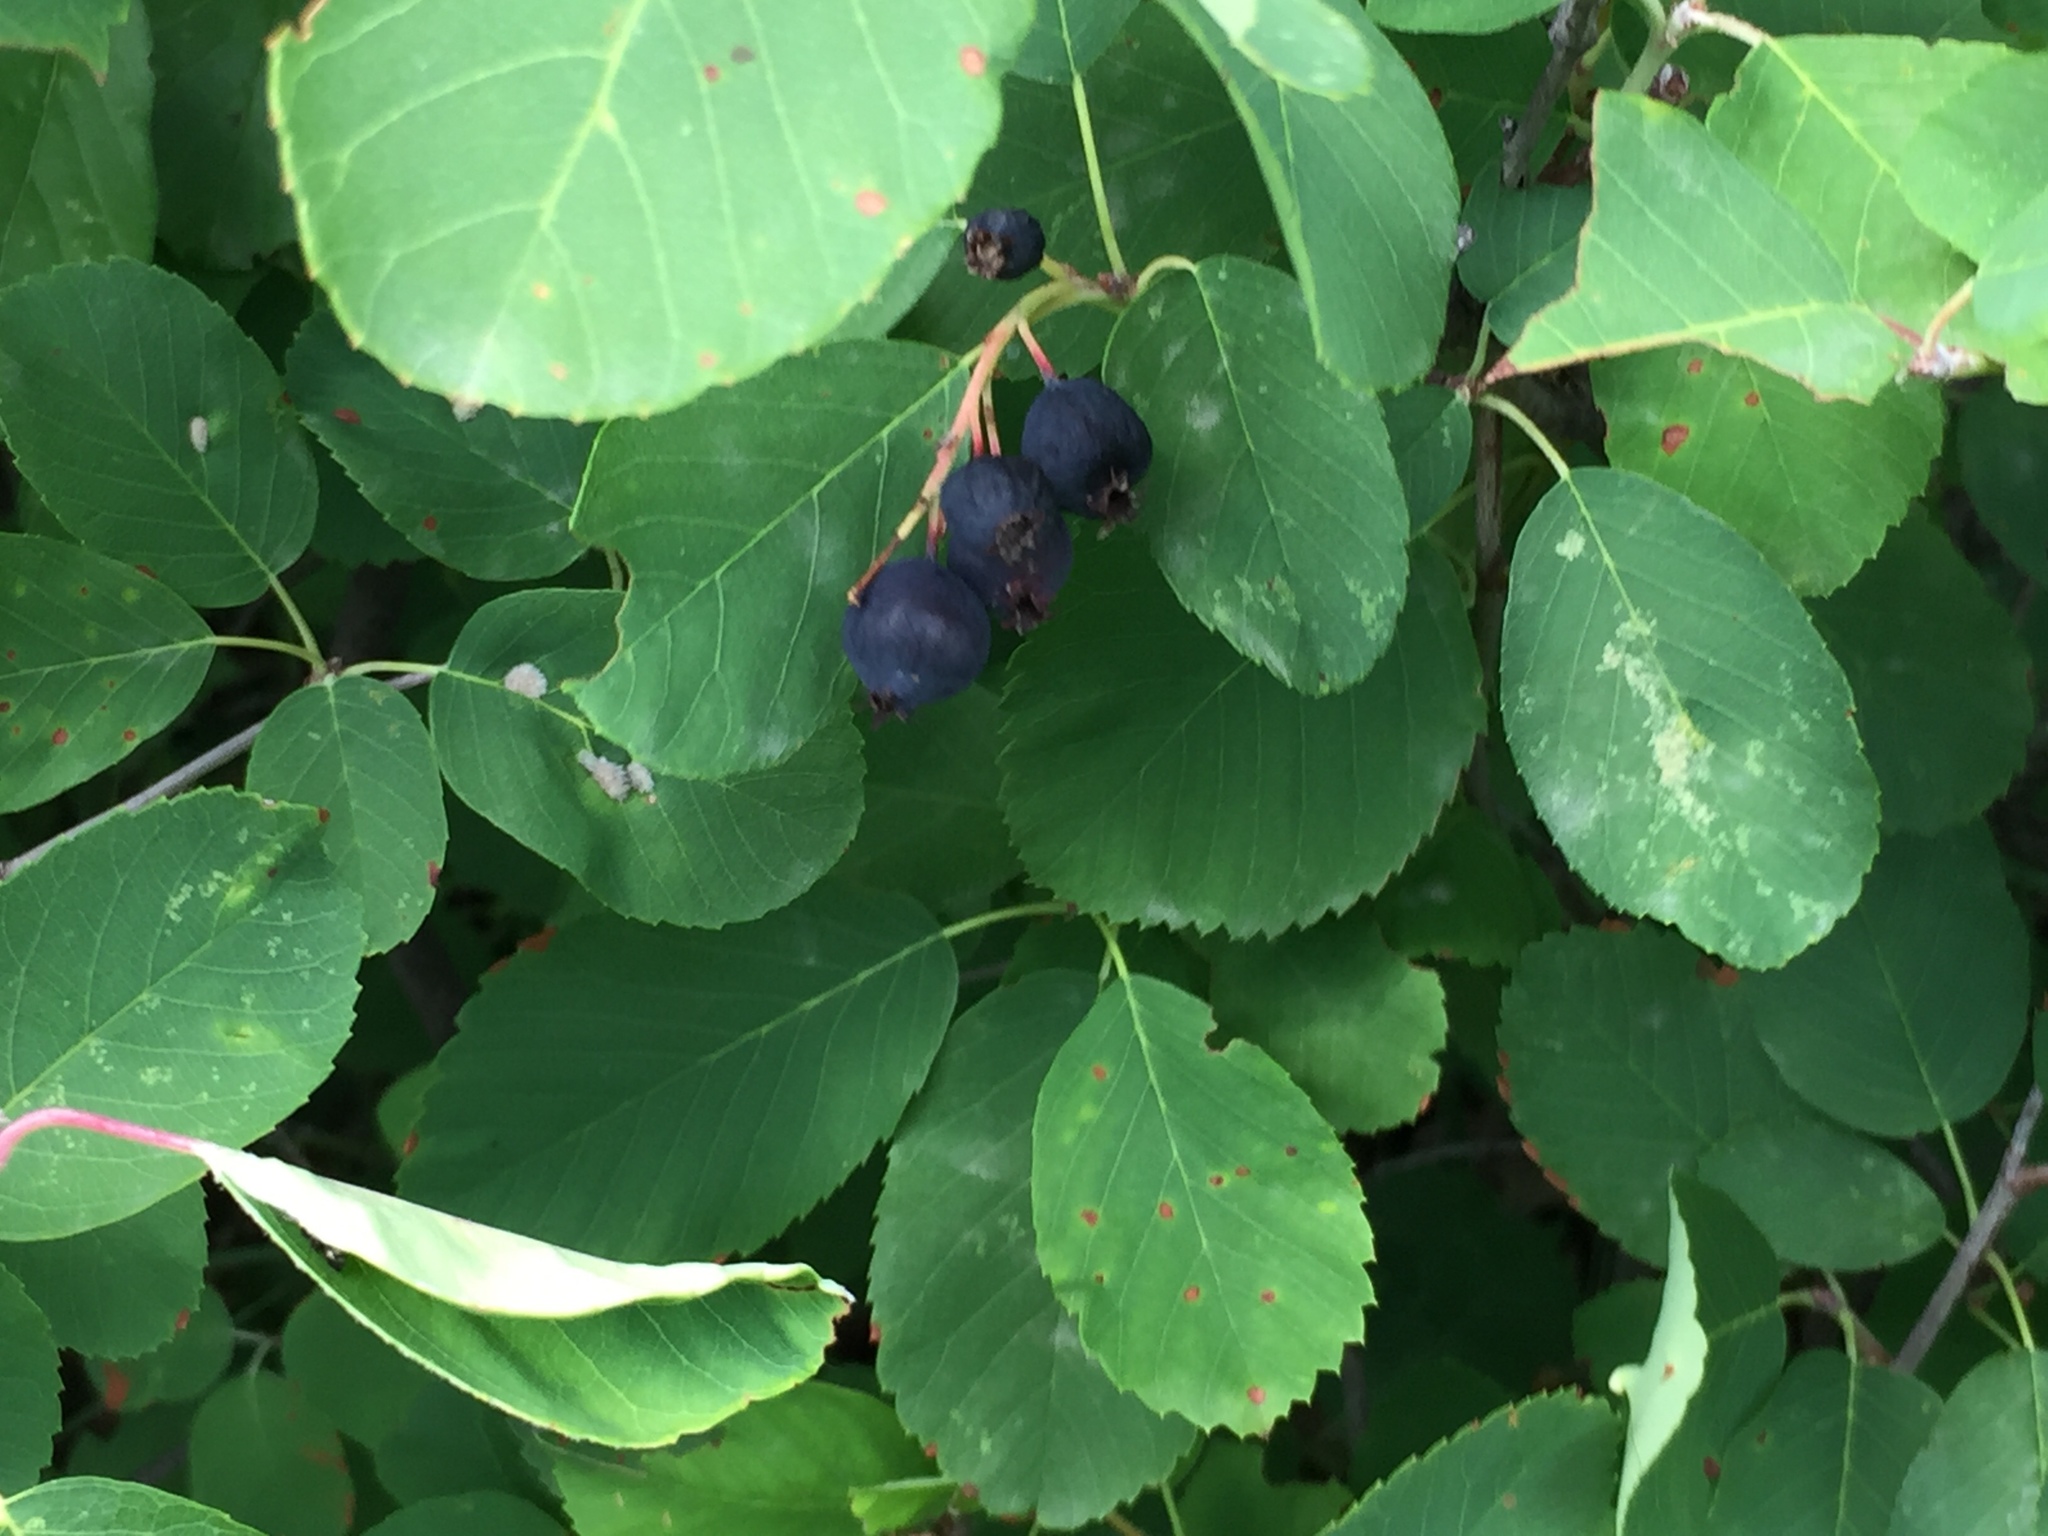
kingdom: Plantae
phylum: Tracheophyta
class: Magnoliopsida
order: Rosales
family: Rosaceae
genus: Amelanchier
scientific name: Amelanchier alnifolia
